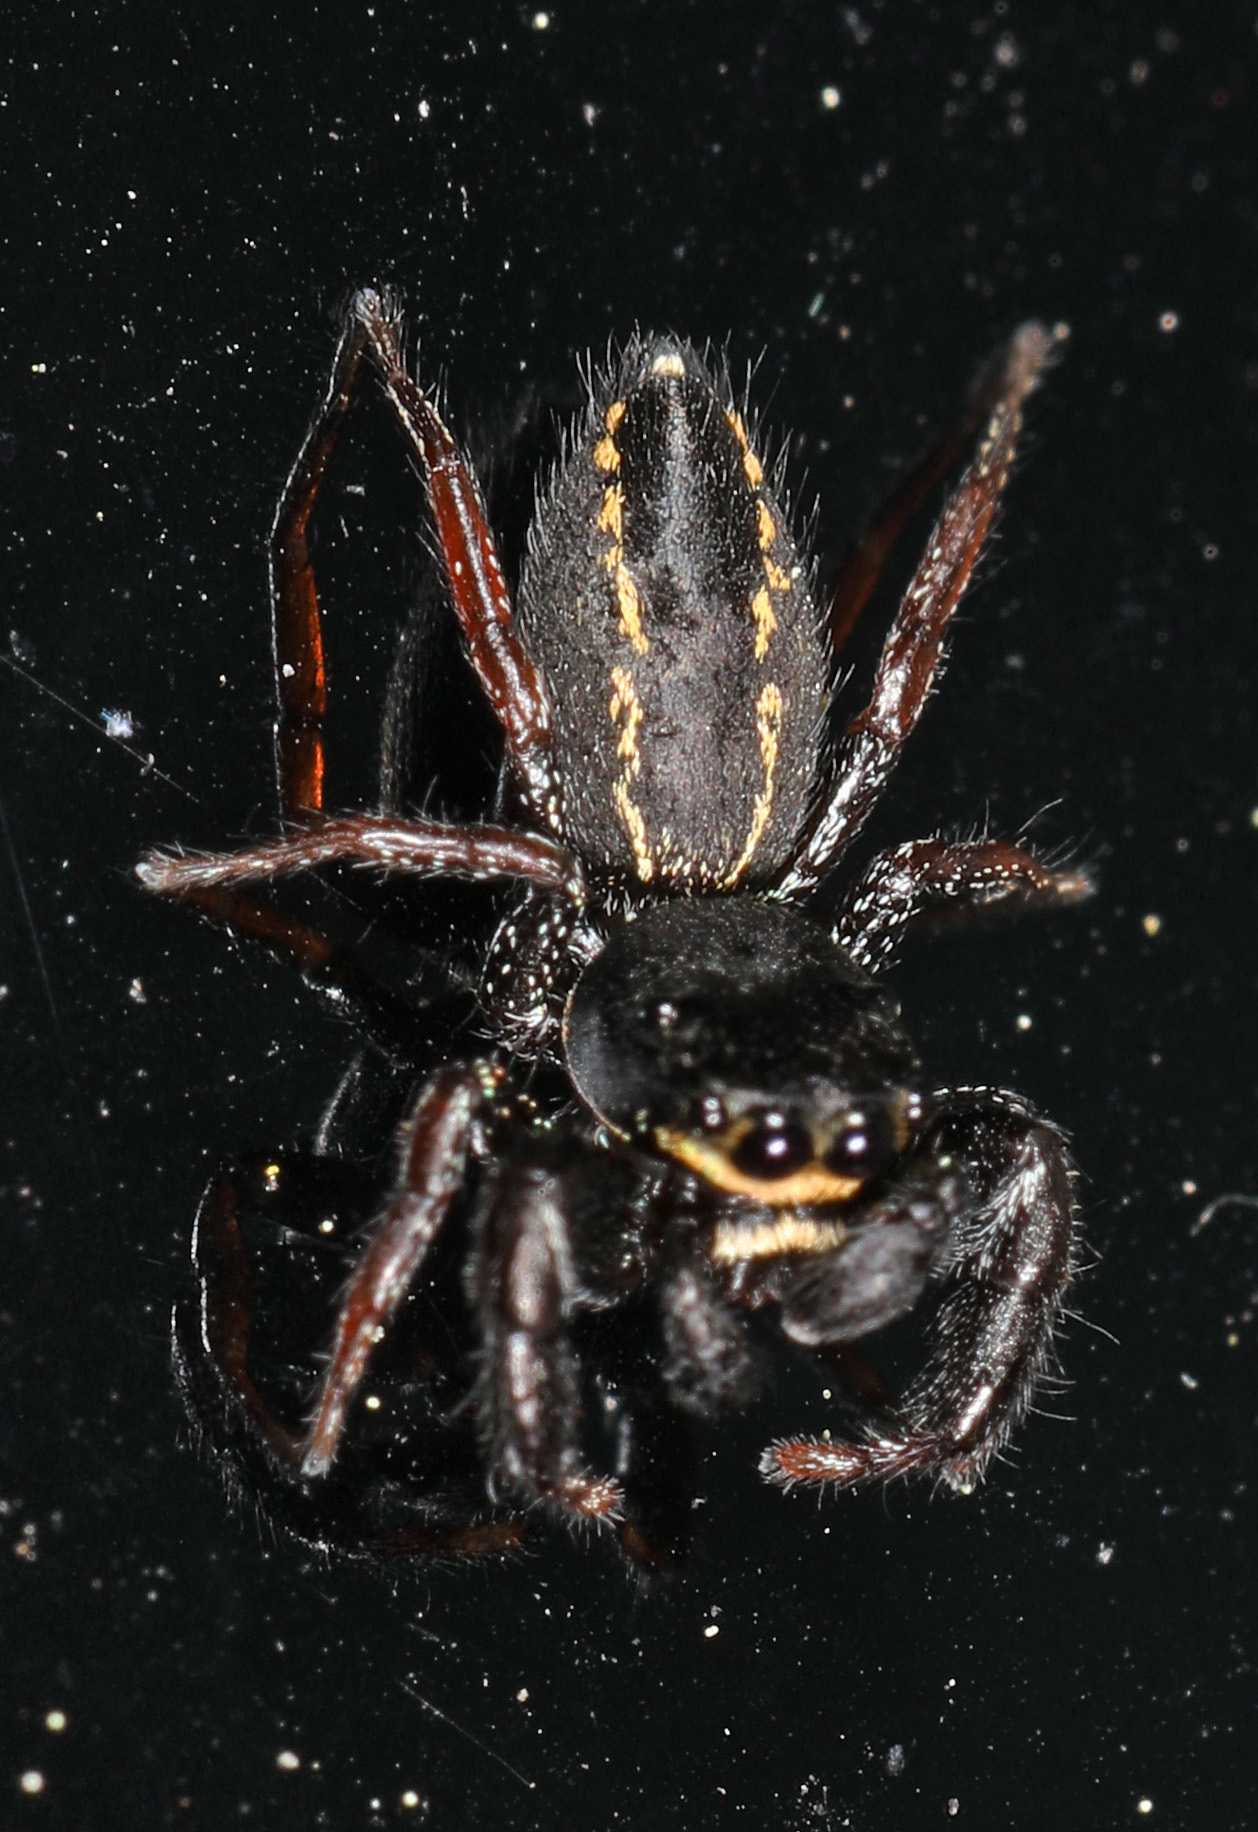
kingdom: Animalia
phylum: Arthropoda
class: Arachnida
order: Araneae
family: Salticidae
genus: Metacyrba
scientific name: Metacyrba taeniola
